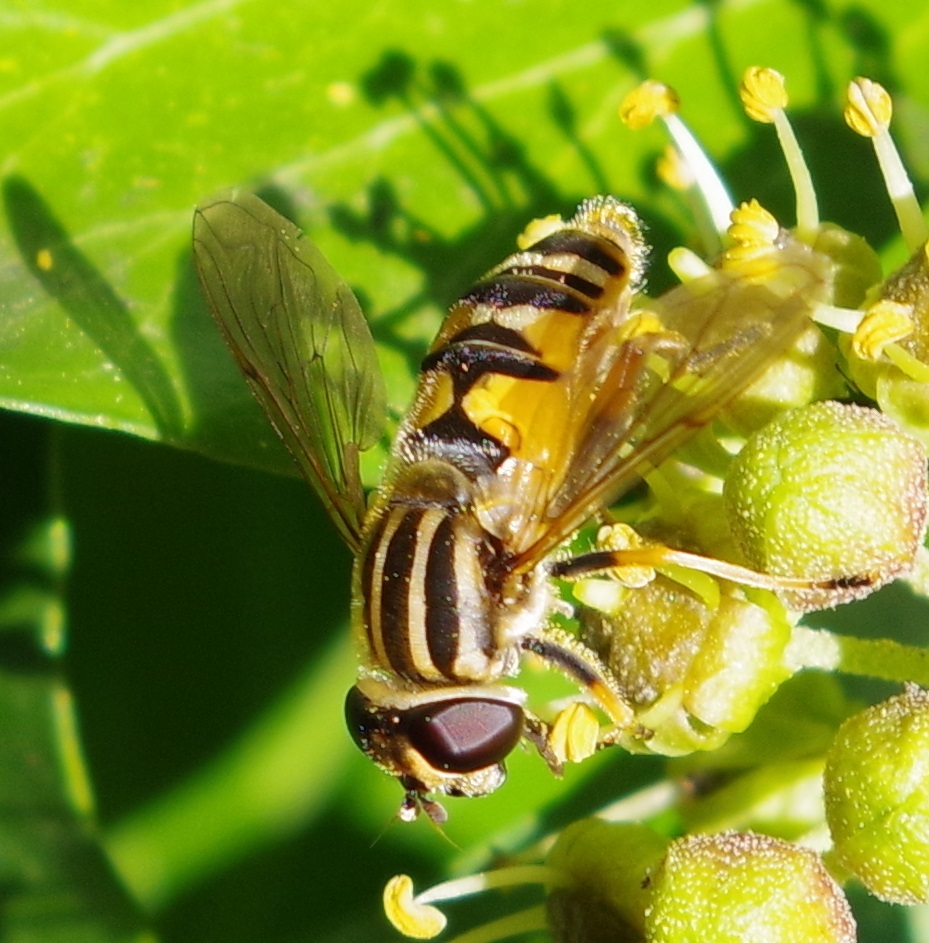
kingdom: Animalia
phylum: Arthropoda
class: Insecta
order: Diptera
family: Syrphidae
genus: Helophilus
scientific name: Helophilus pendulus
